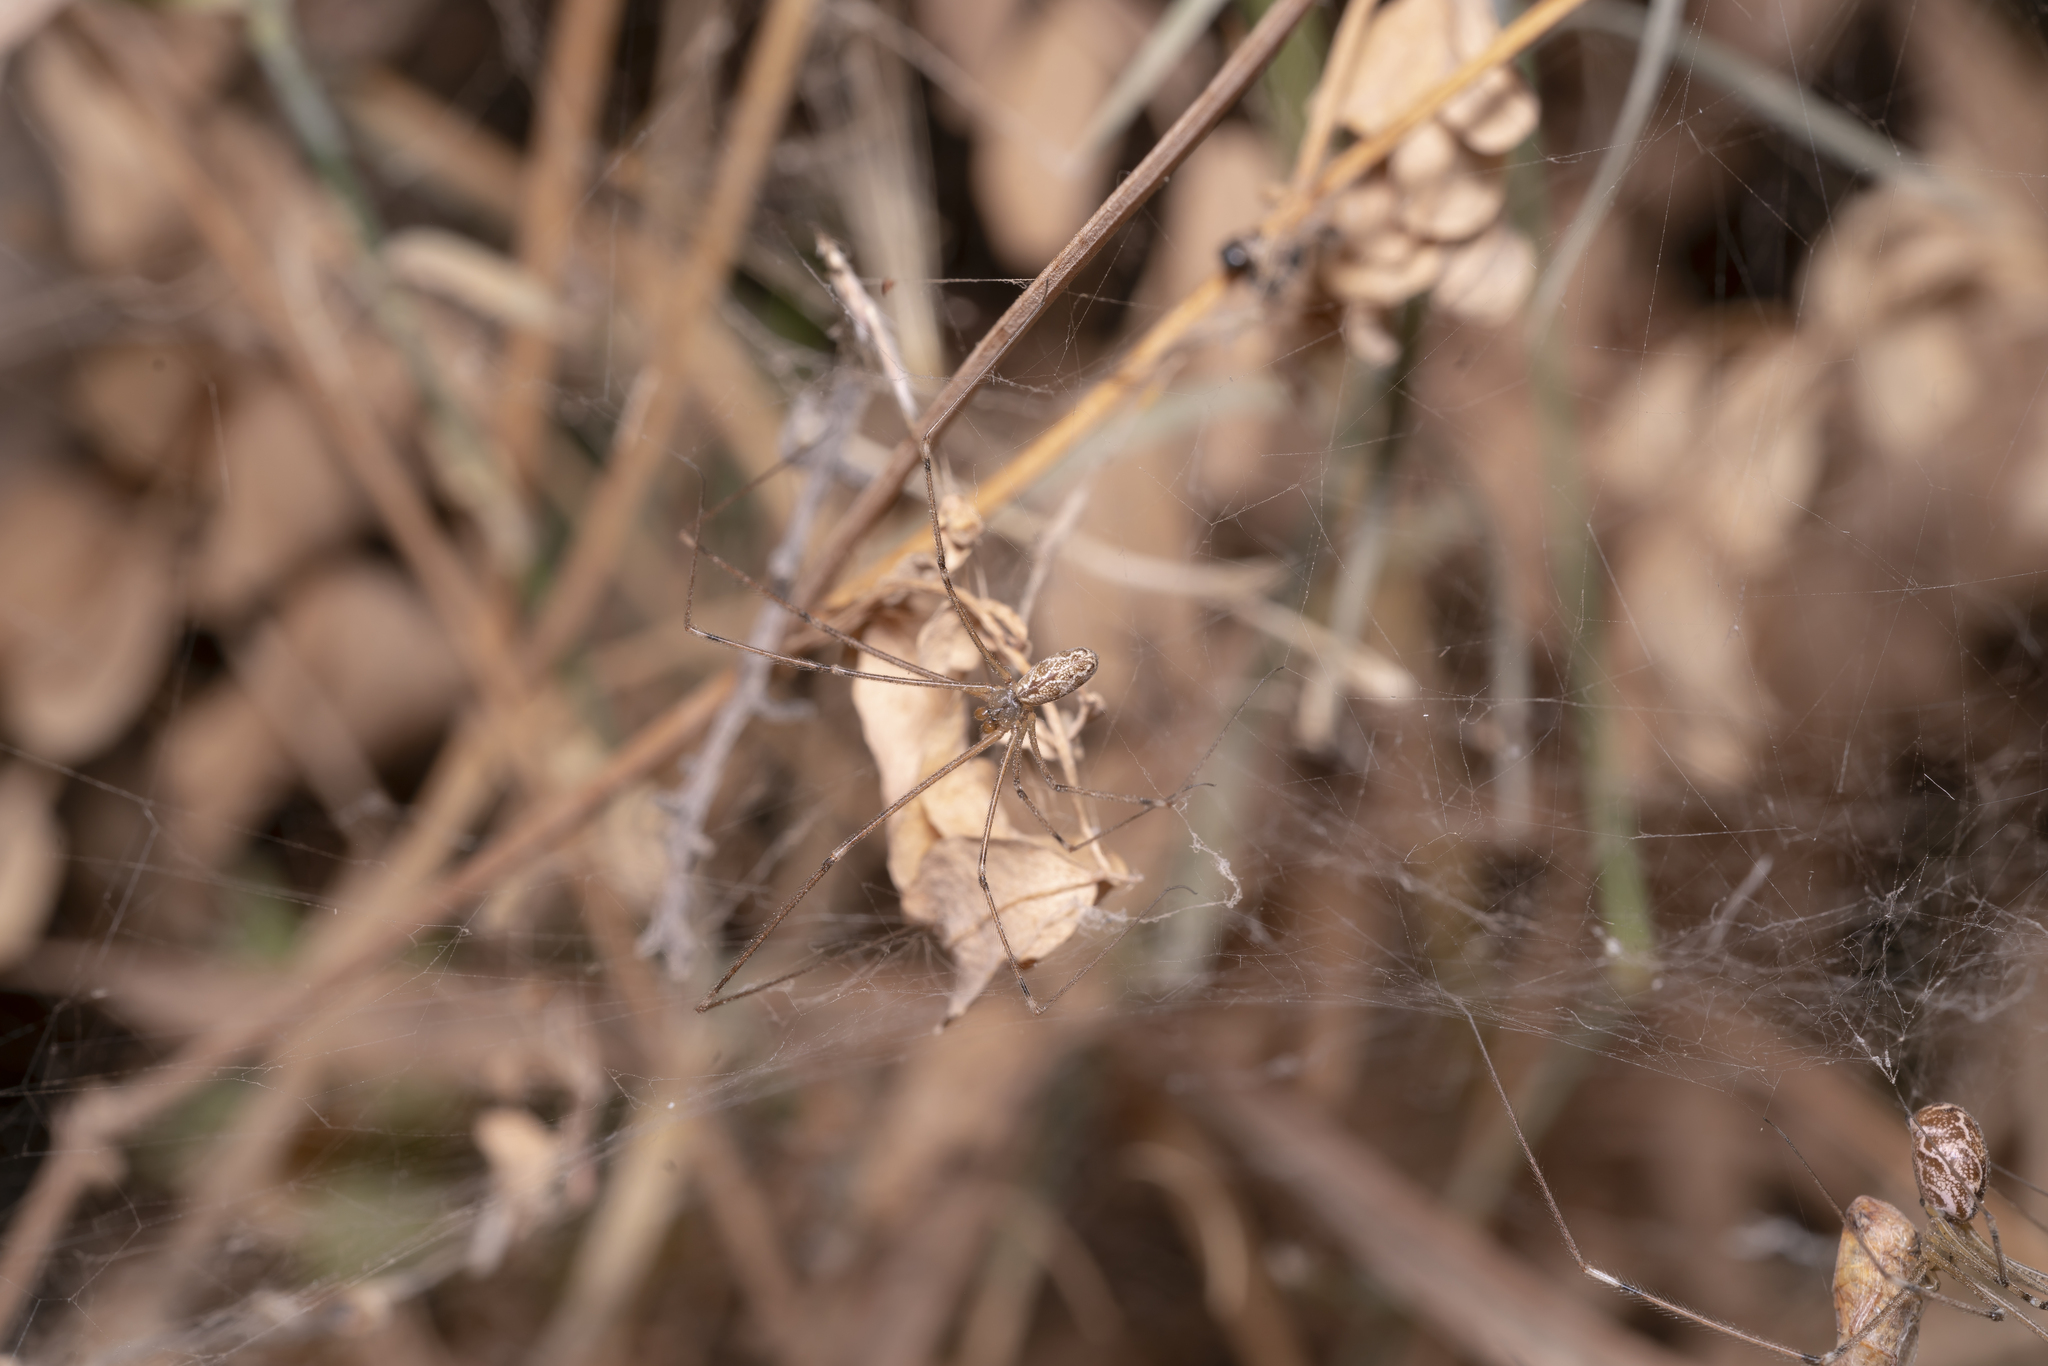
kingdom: Animalia
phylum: Arthropoda
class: Arachnida
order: Araneae
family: Pholcidae
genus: Holocnemus
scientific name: Holocnemus pluchei
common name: Marbled cellar spider
